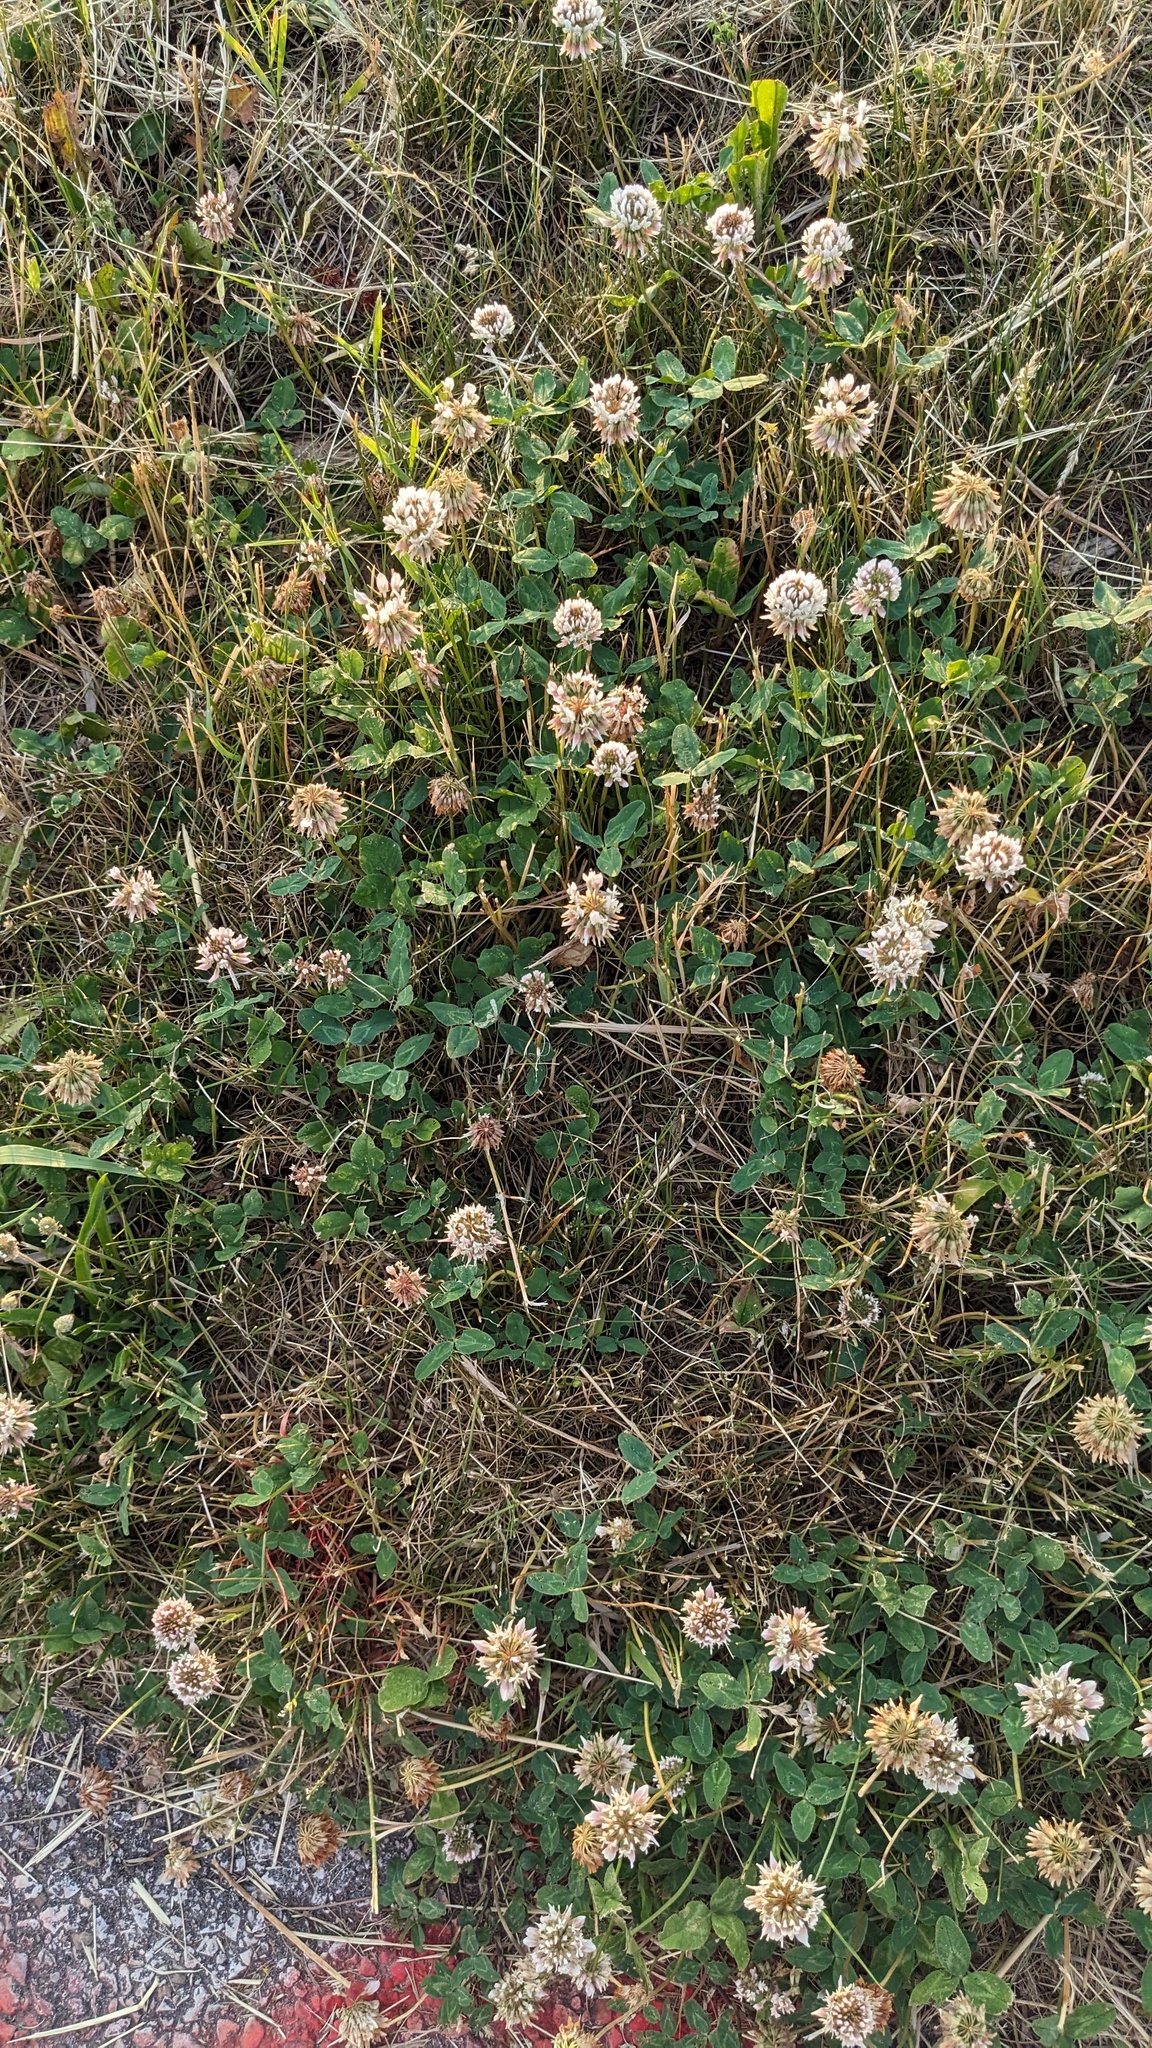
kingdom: Plantae
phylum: Tracheophyta
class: Magnoliopsida
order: Fabales
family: Fabaceae
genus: Trifolium
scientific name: Trifolium repens
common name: White clover
